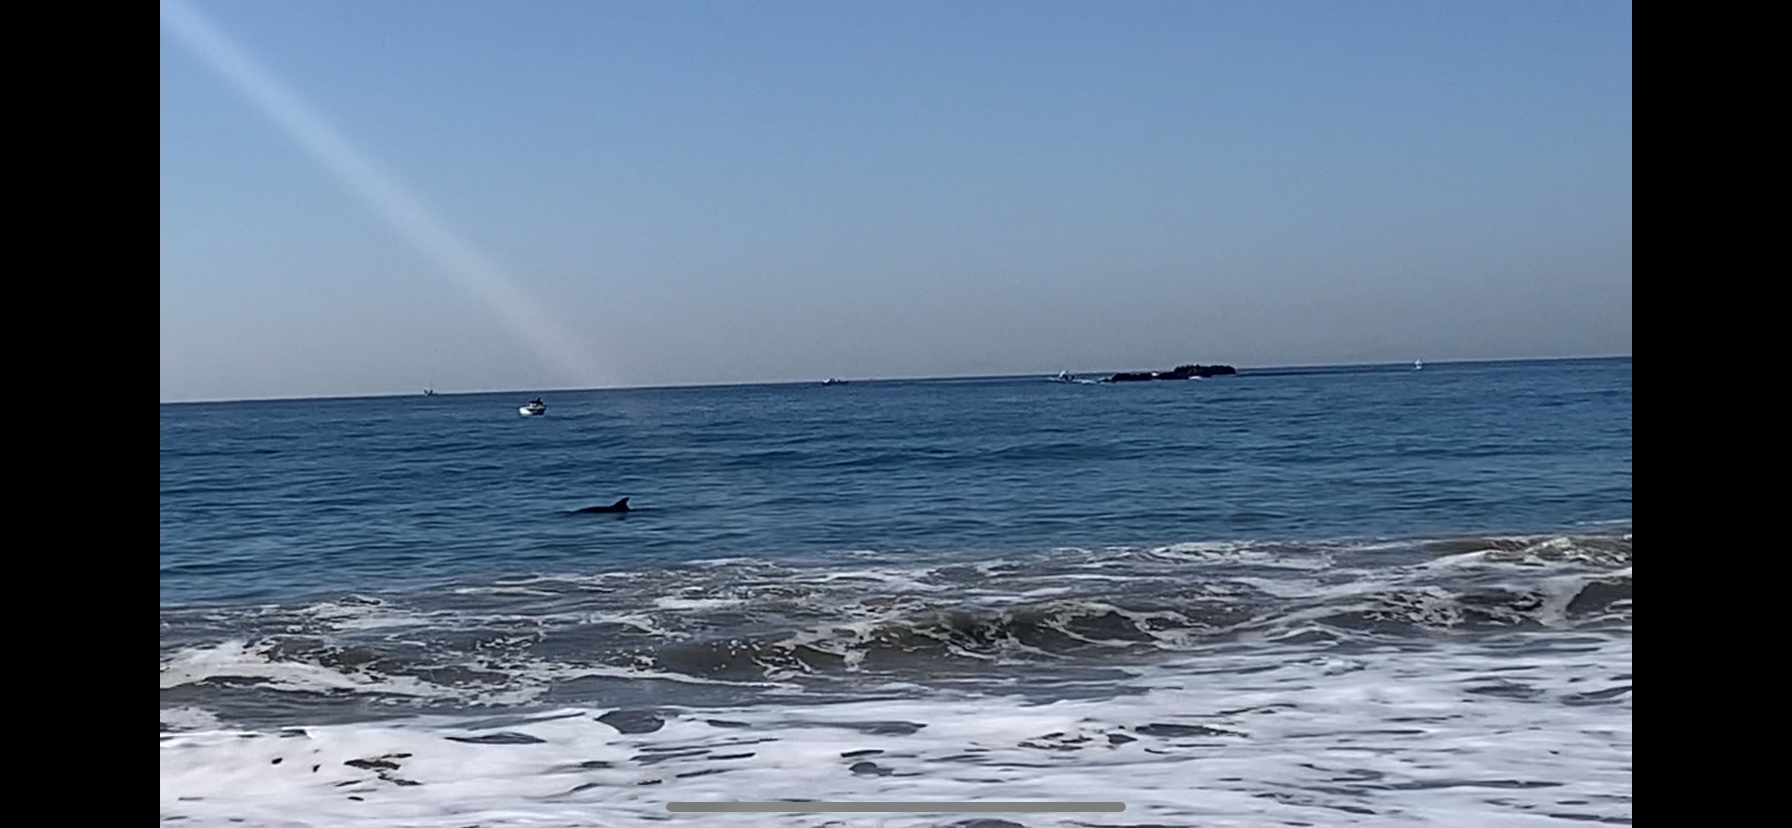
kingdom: Animalia
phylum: Chordata
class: Mammalia
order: Cetacea
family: Delphinidae
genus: Tursiops
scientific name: Tursiops truncatus
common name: Bottlenose dolphin
